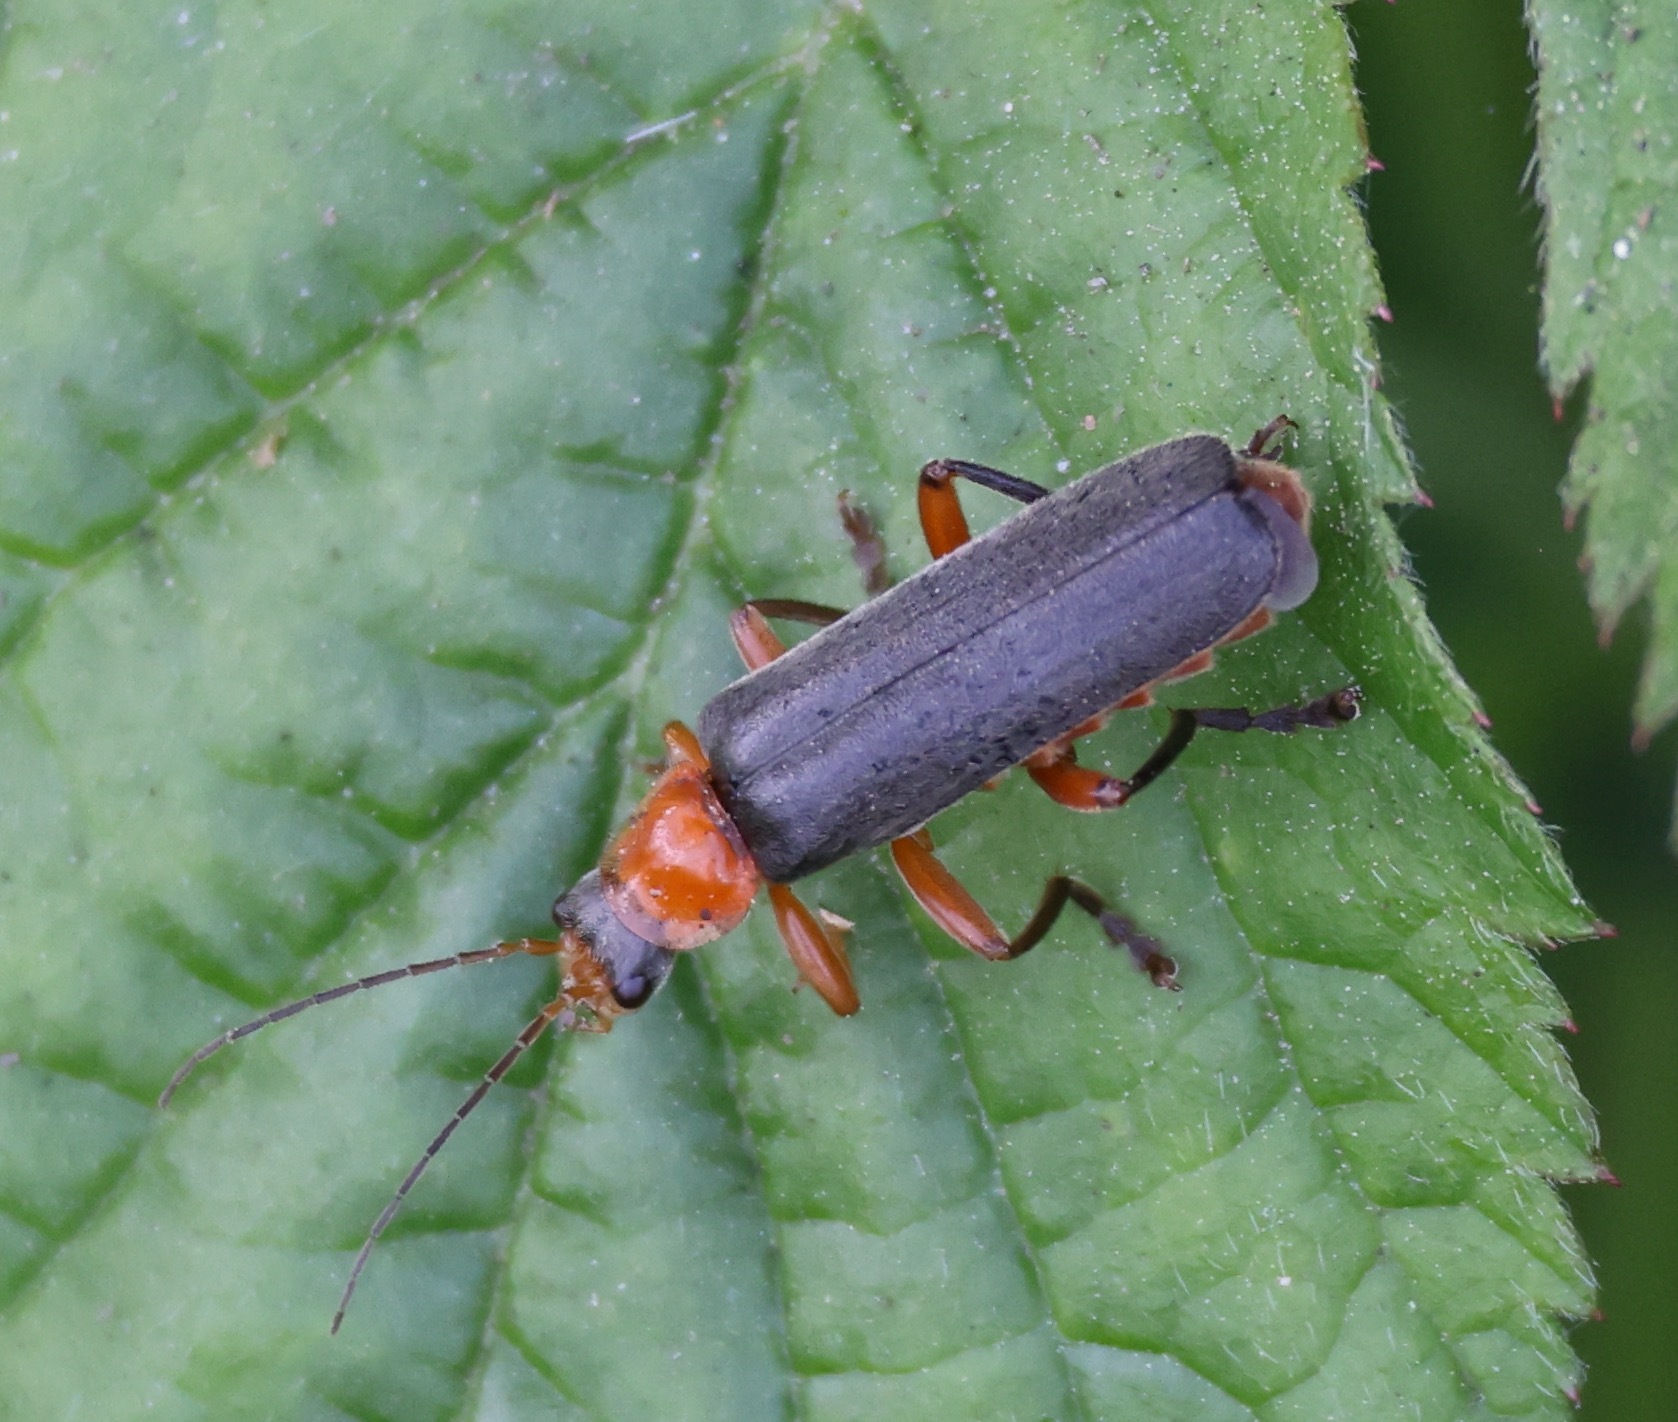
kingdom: Animalia
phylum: Arthropoda
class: Insecta
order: Coleoptera
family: Cantharidae
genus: Cantharis
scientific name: Cantharis pellucida
